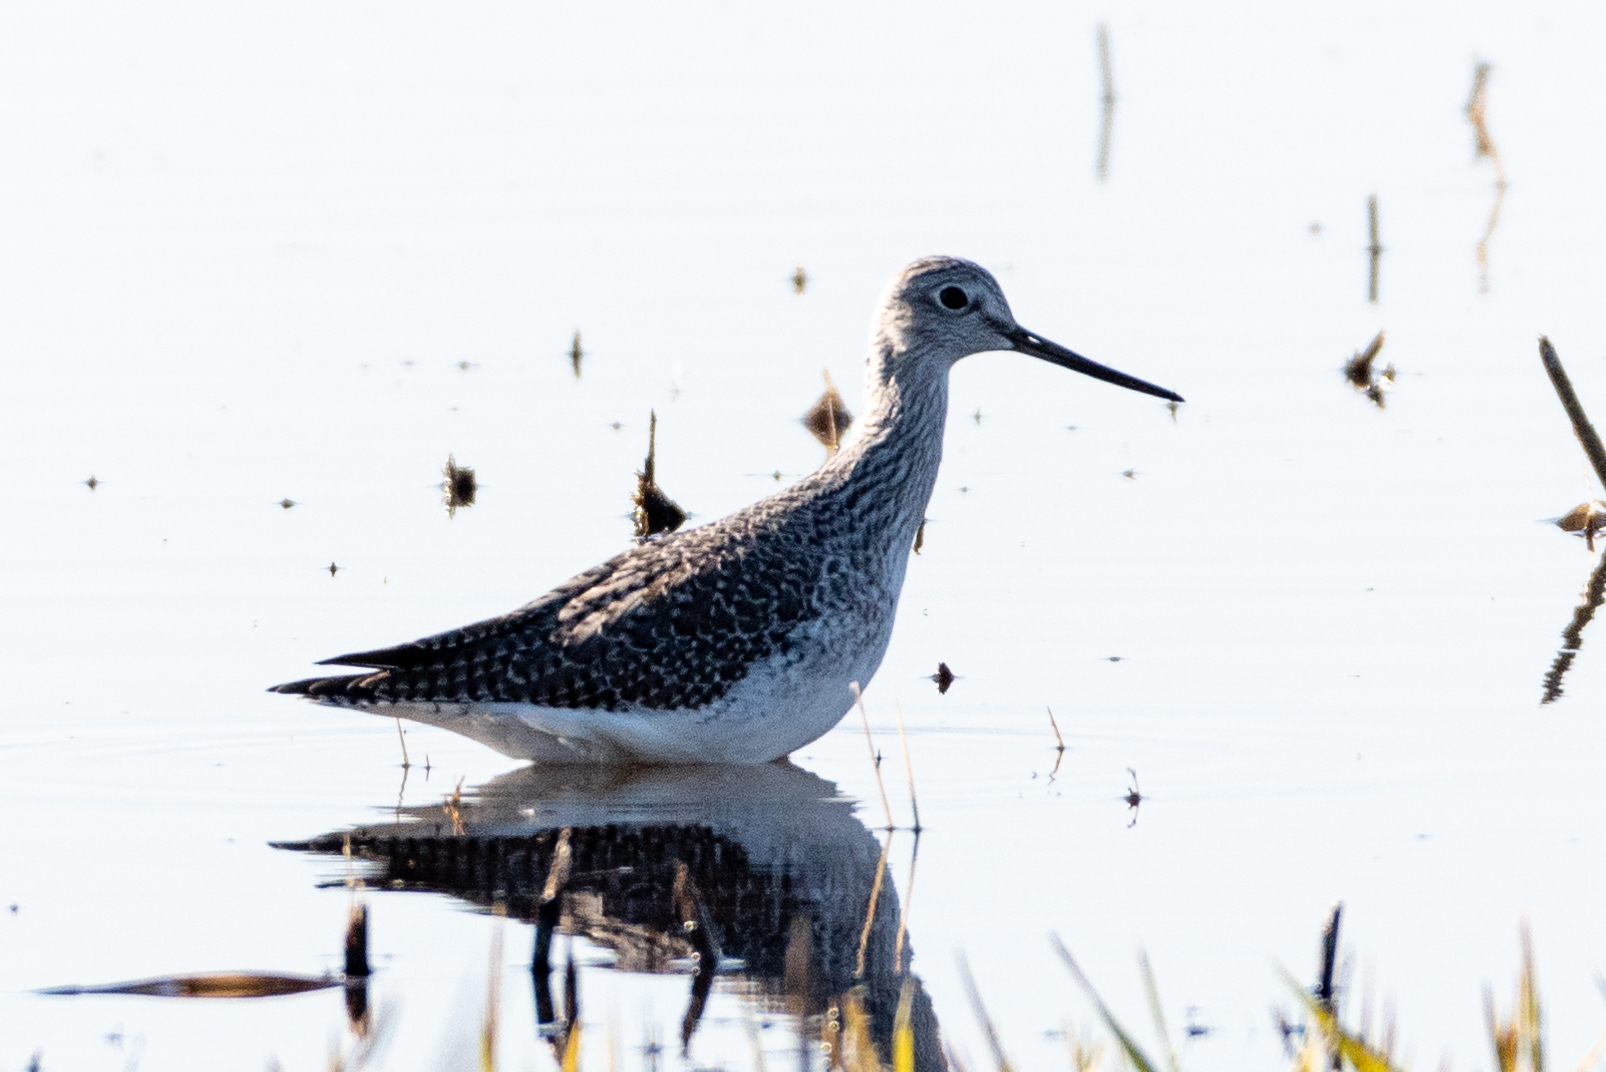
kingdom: Animalia
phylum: Chordata
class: Aves
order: Charadriiformes
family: Scolopacidae
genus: Tringa
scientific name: Tringa melanoleuca
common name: Greater yellowlegs
